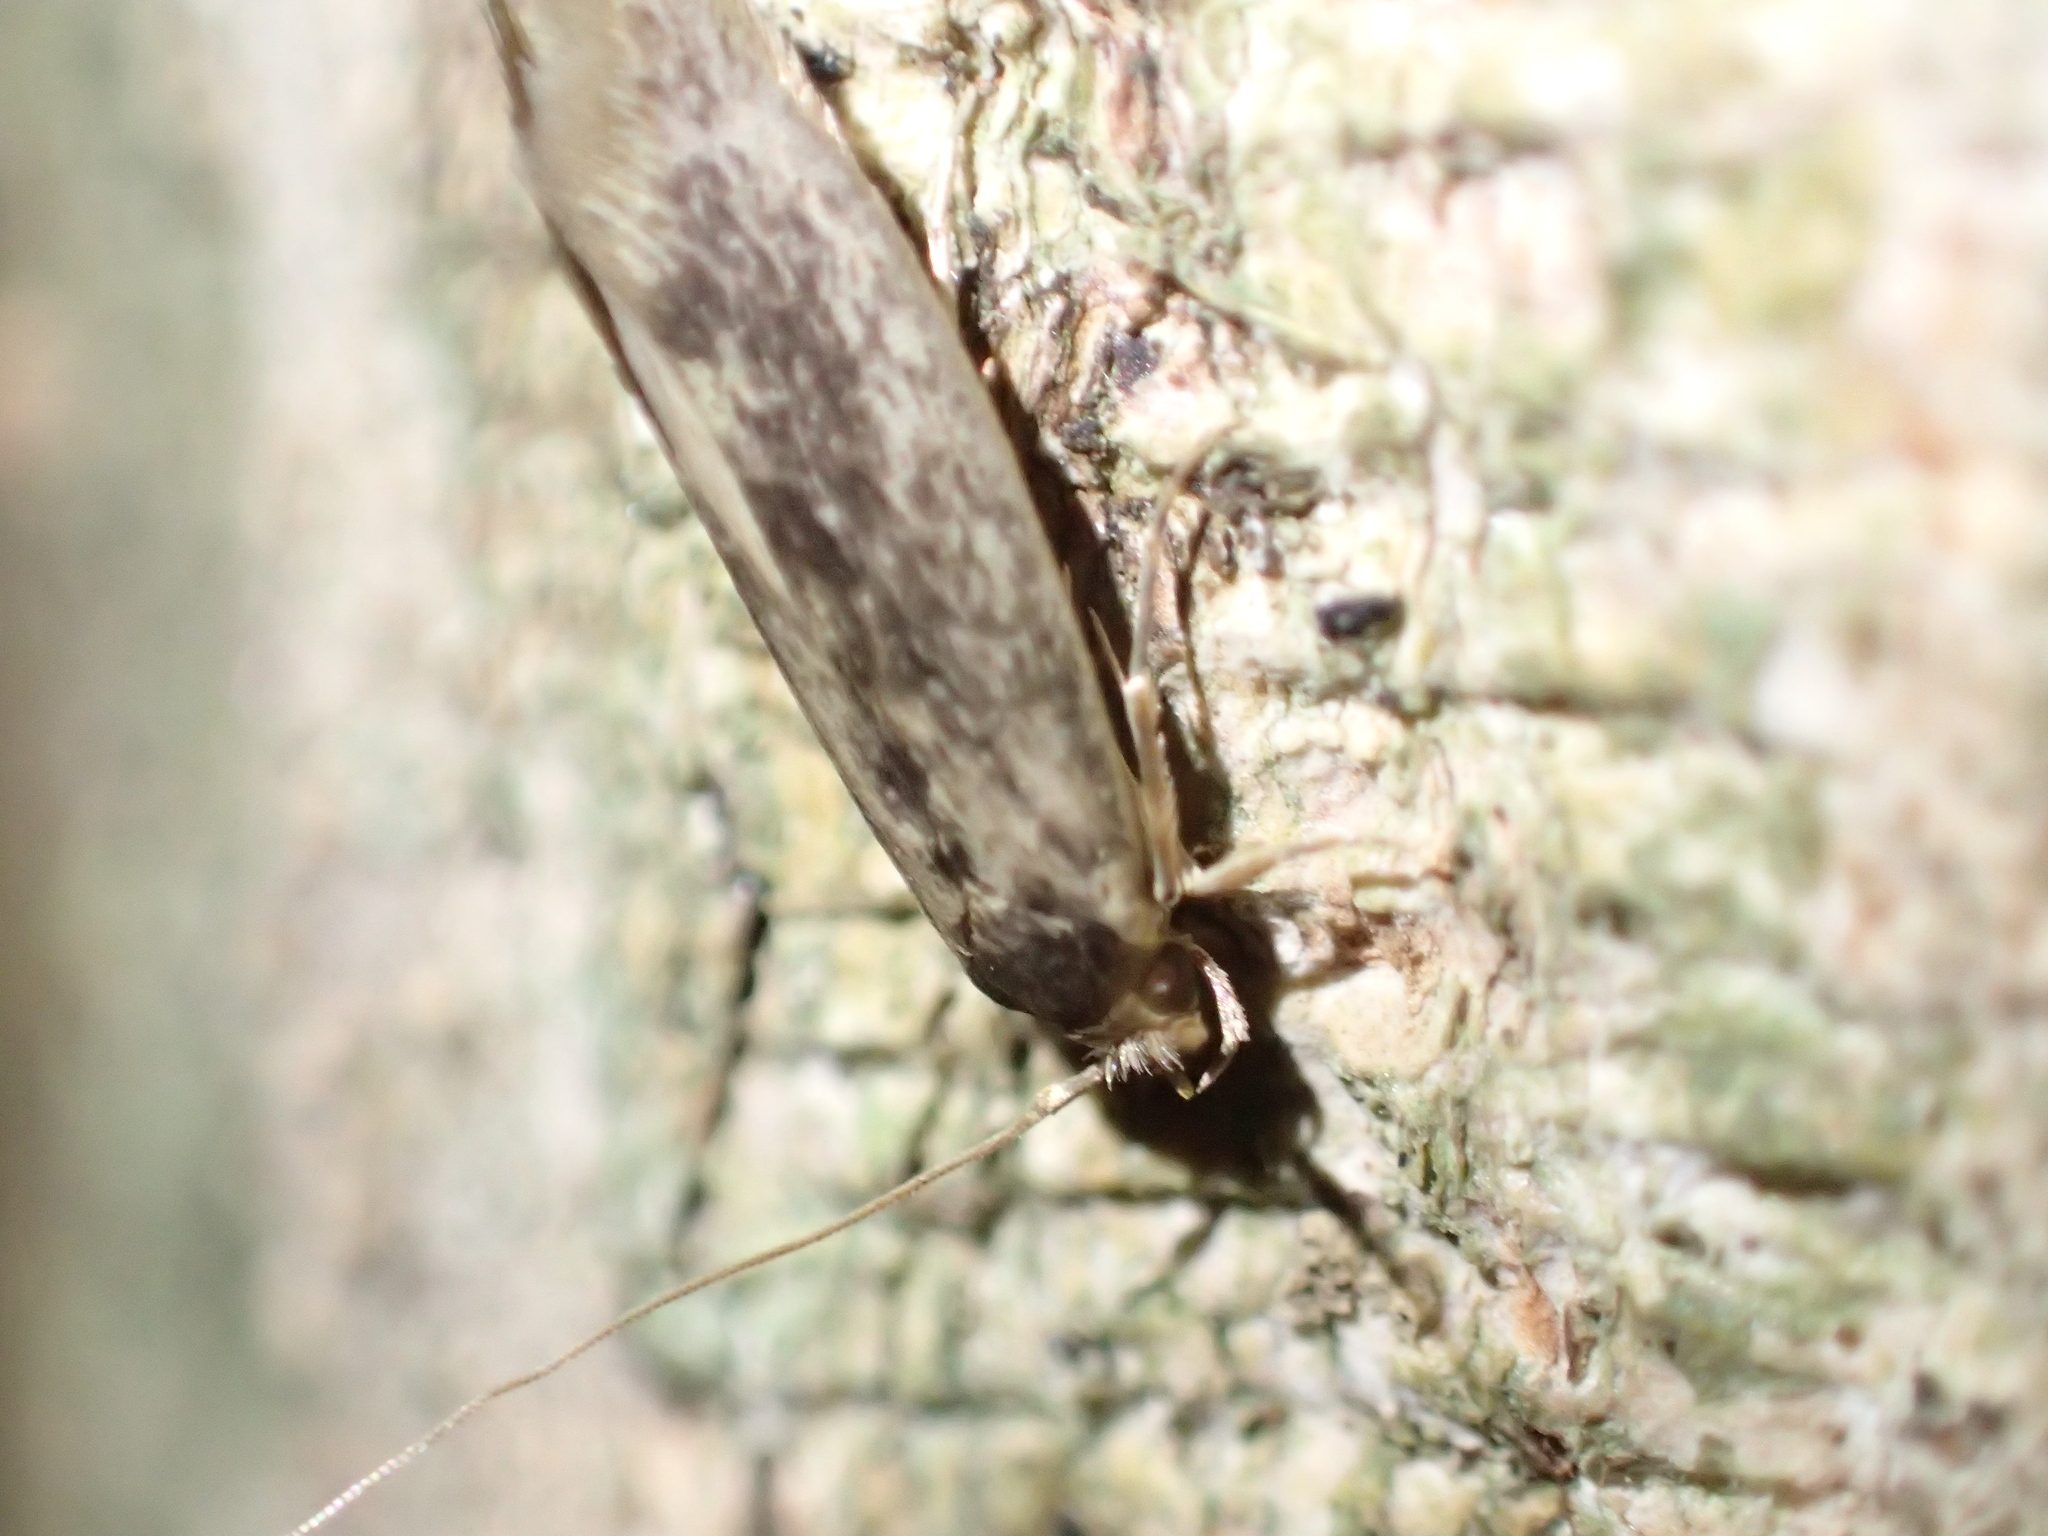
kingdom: Animalia
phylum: Arthropoda
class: Insecta
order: Lepidoptera
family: Tineidae
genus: Opogona
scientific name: Opogona omoscopa
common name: Moth
